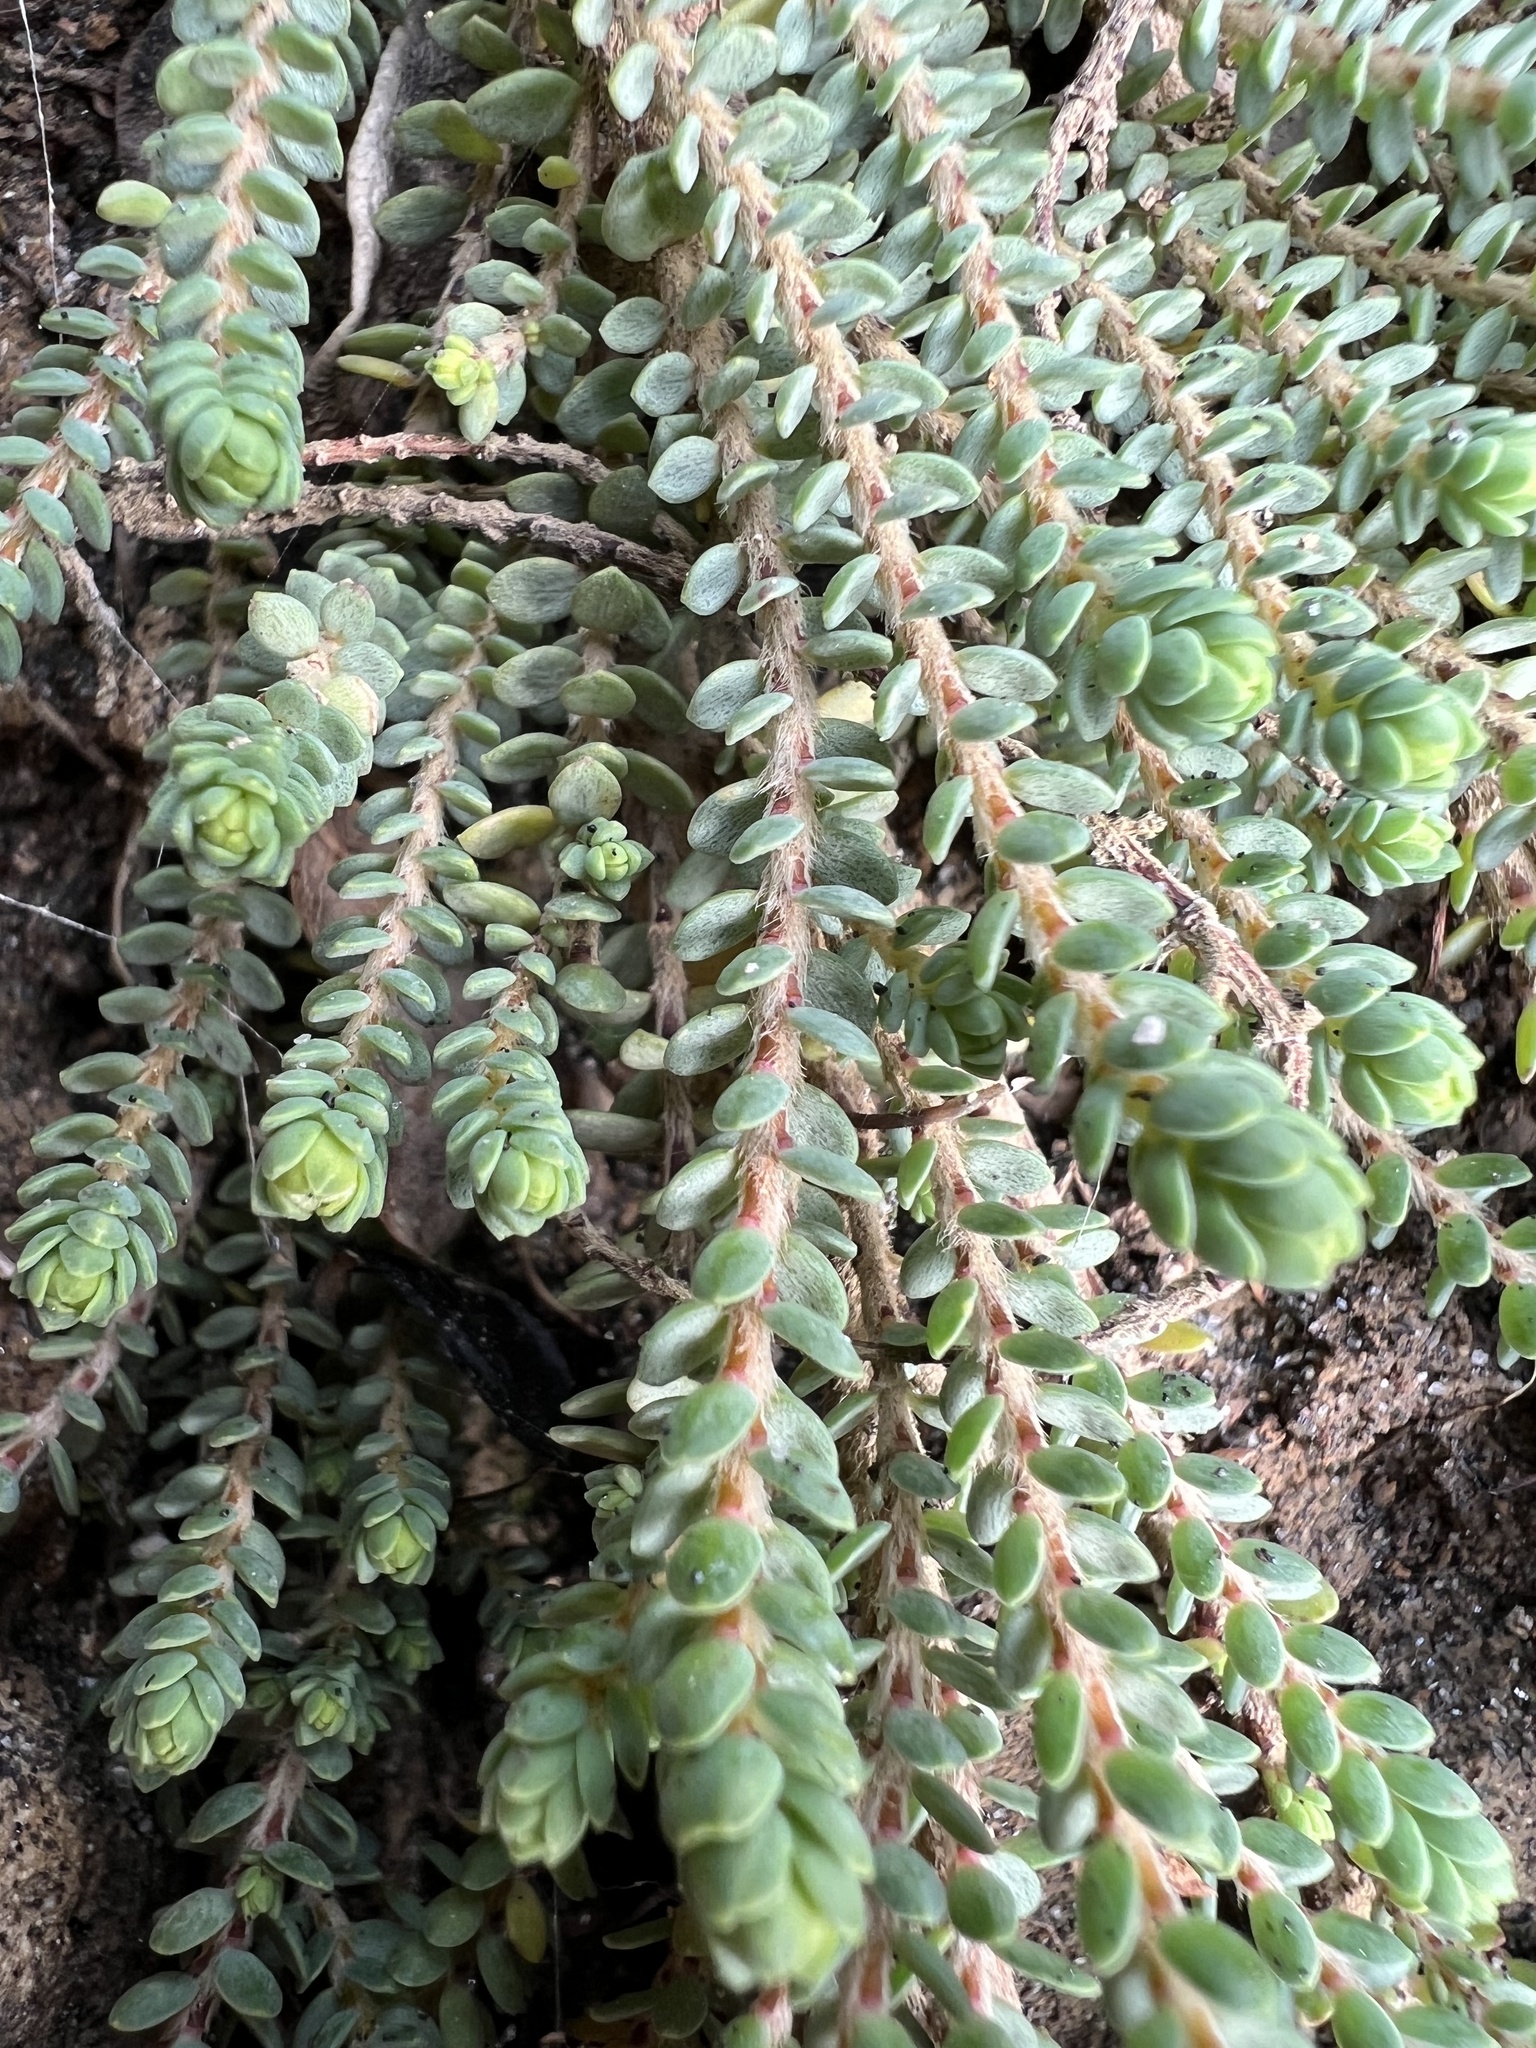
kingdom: Plantae
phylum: Tracheophyta
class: Magnoliopsida
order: Malvales
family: Thymelaeaceae
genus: Pimelea
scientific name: Pimelea carnosa
